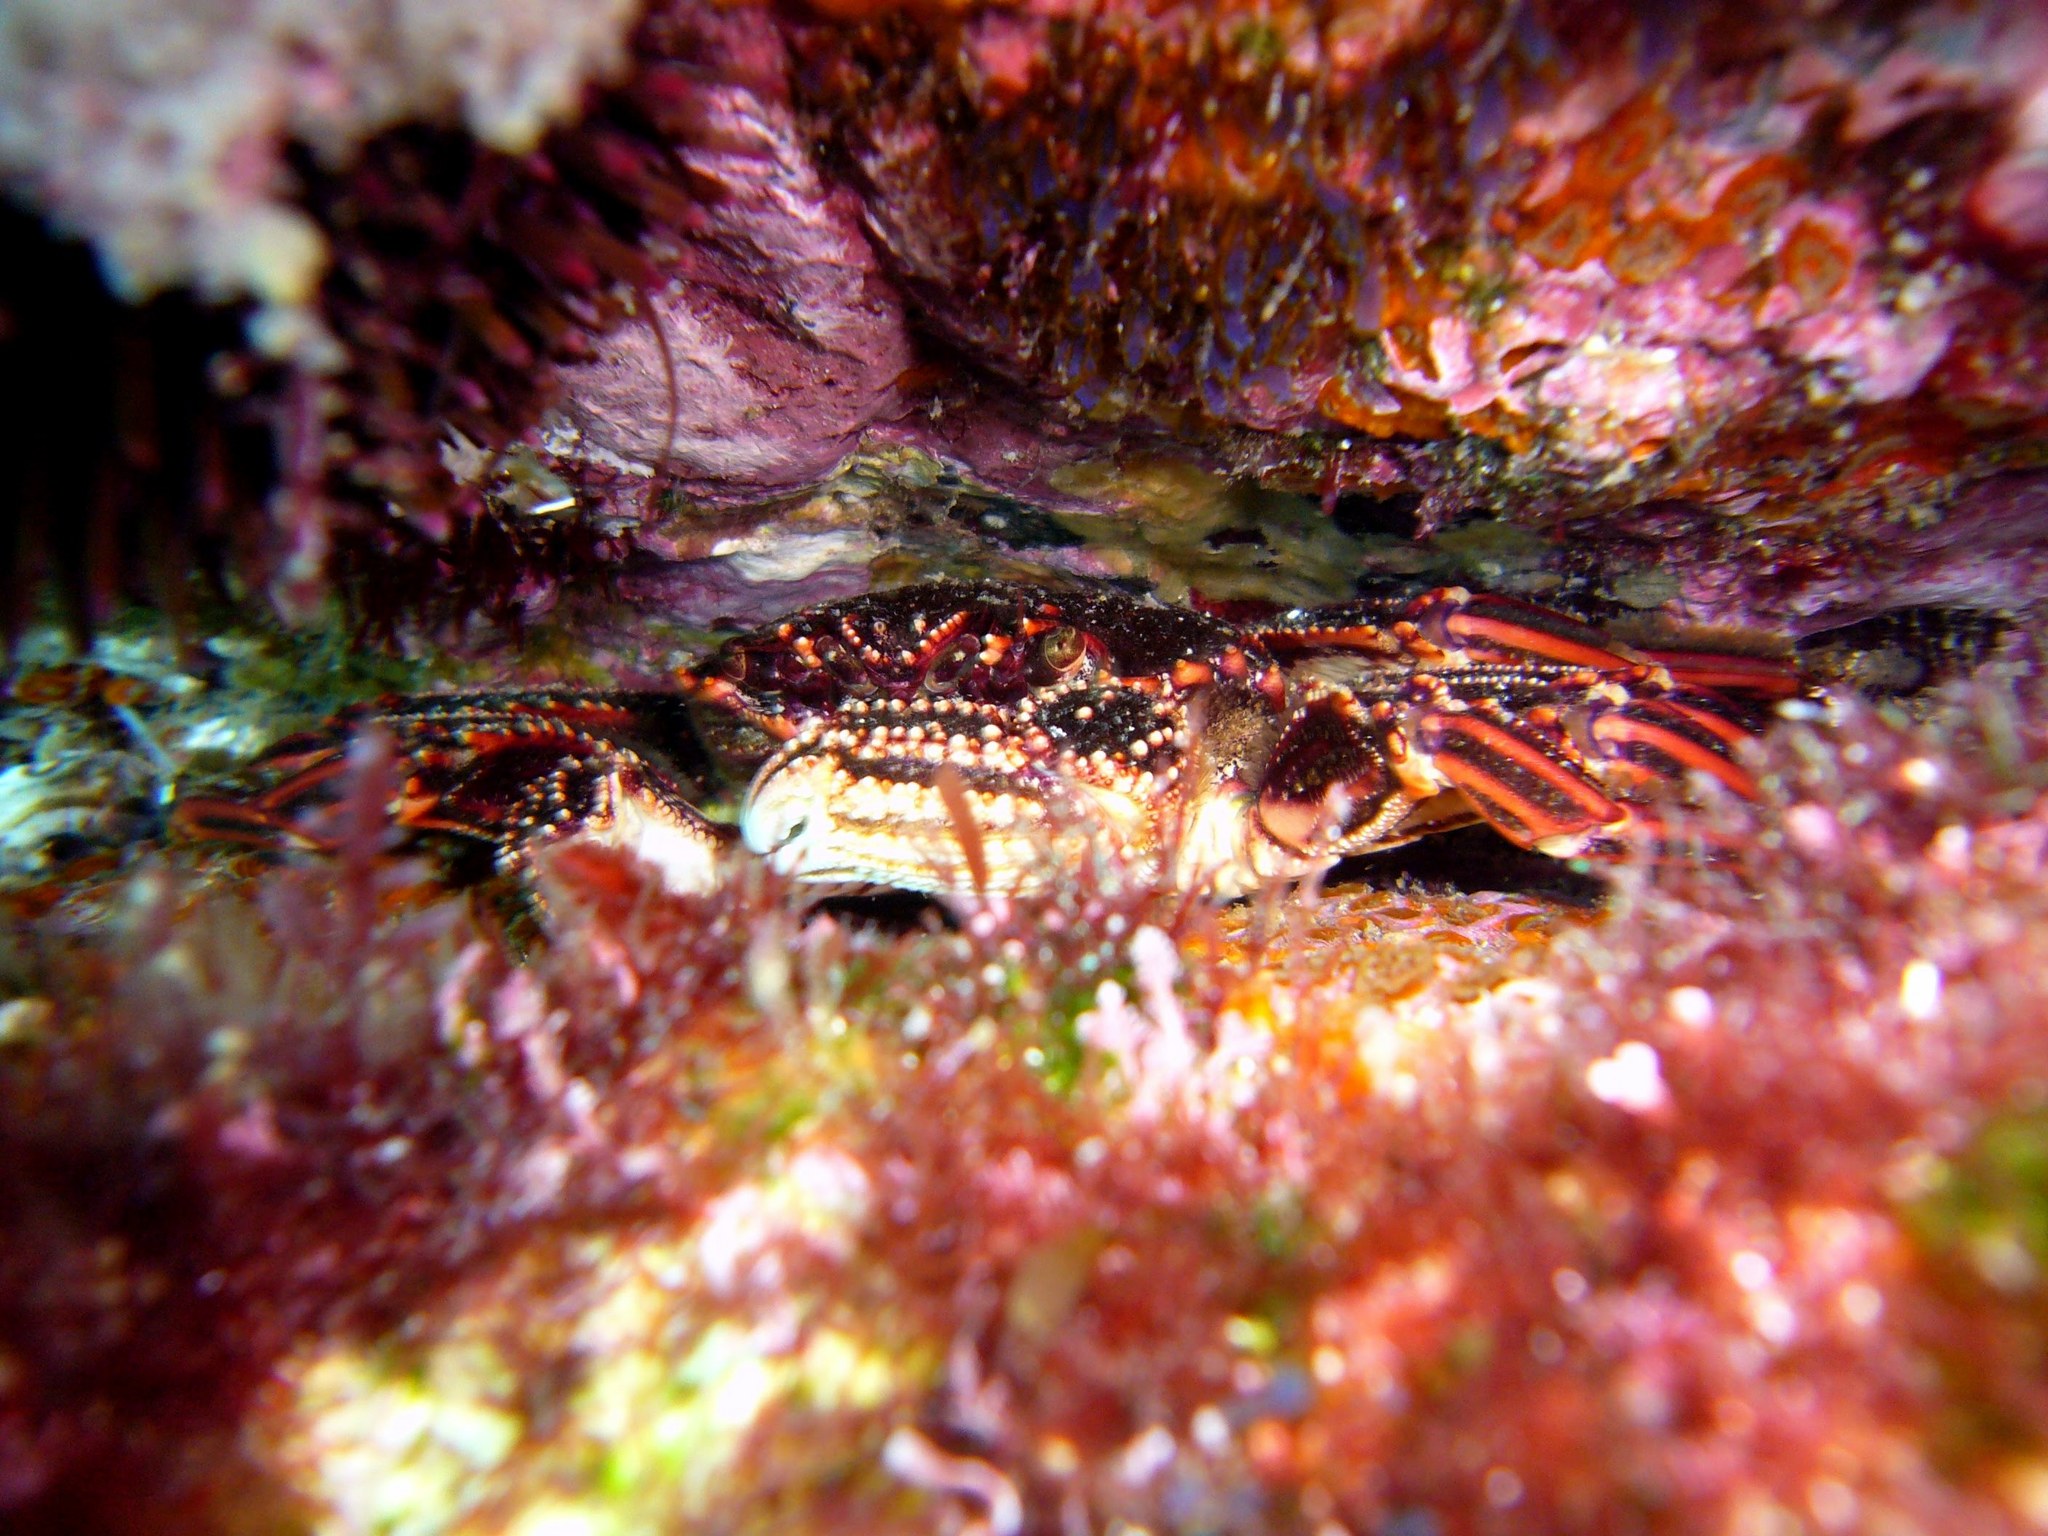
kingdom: Animalia
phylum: Arthropoda
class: Malacostraca
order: Decapoda
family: Plagusiidae
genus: Guinusia
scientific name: Guinusia chabrus
